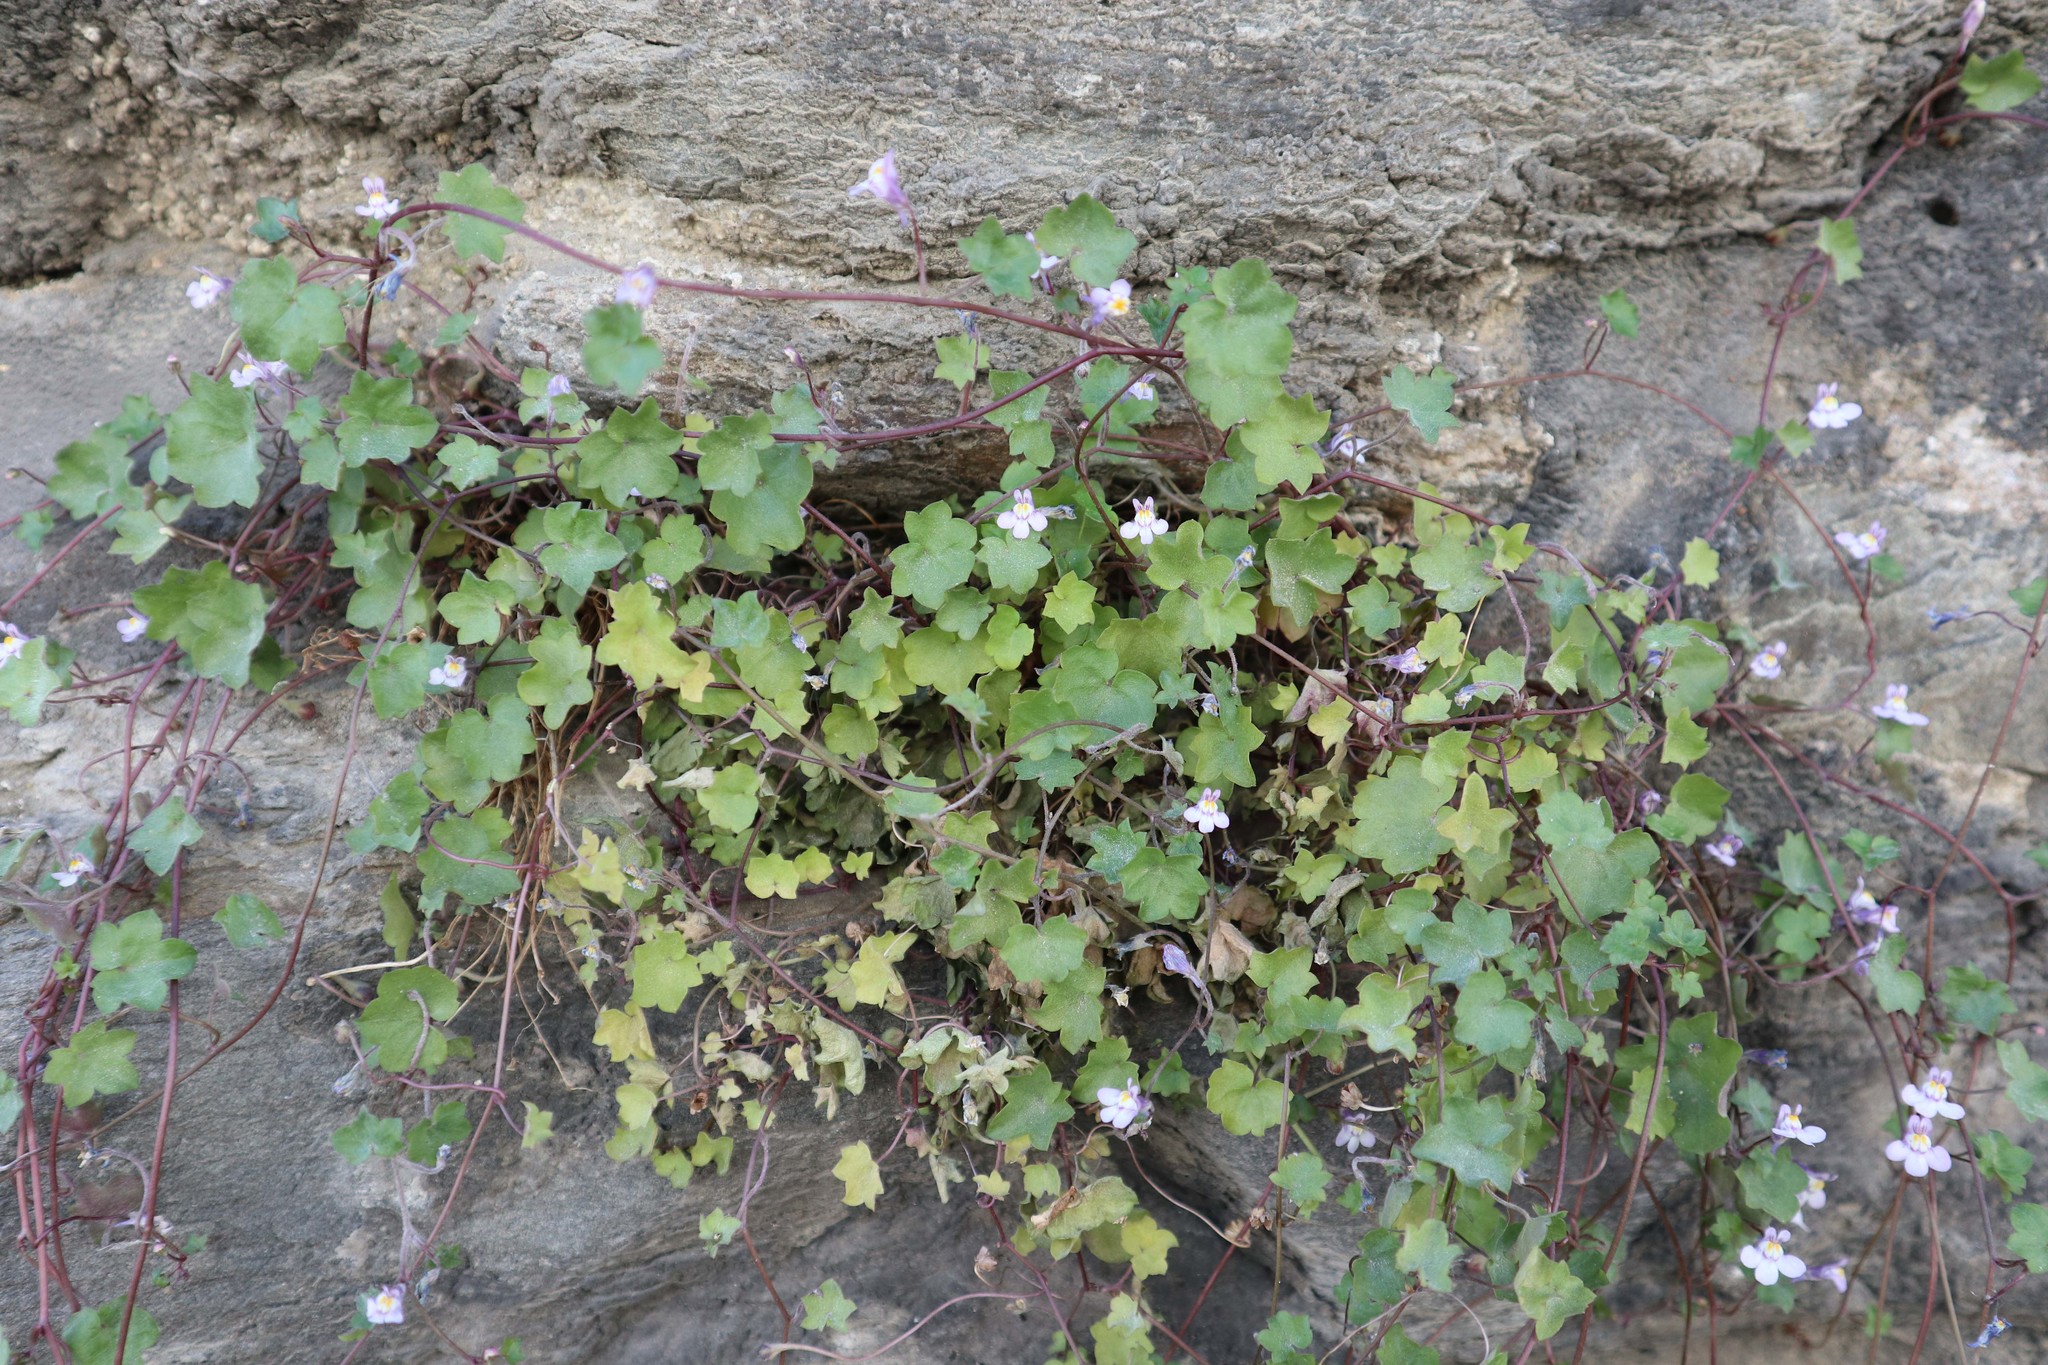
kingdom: Plantae
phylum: Tracheophyta
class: Magnoliopsida
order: Lamiales
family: Plantaginaceae
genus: Cymbalaria
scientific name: Cymbalaria muralis
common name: Ivy-leaved toadflax
